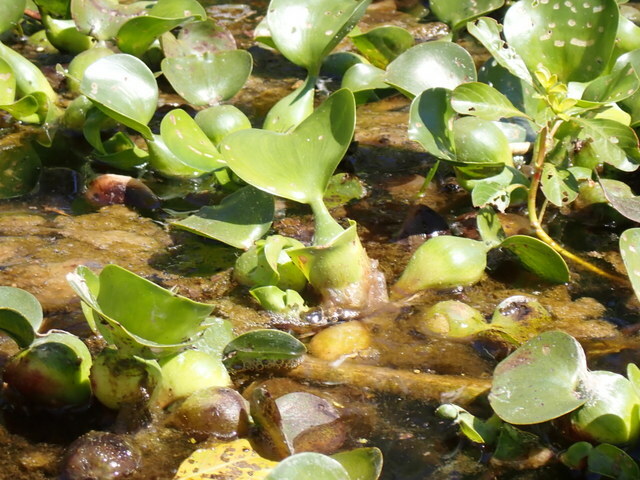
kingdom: Plantae
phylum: Tracheophyta
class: Liliopsida
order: Commelinales
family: Pontederiaceae
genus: Pontederia
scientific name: Pontederia crassipes
